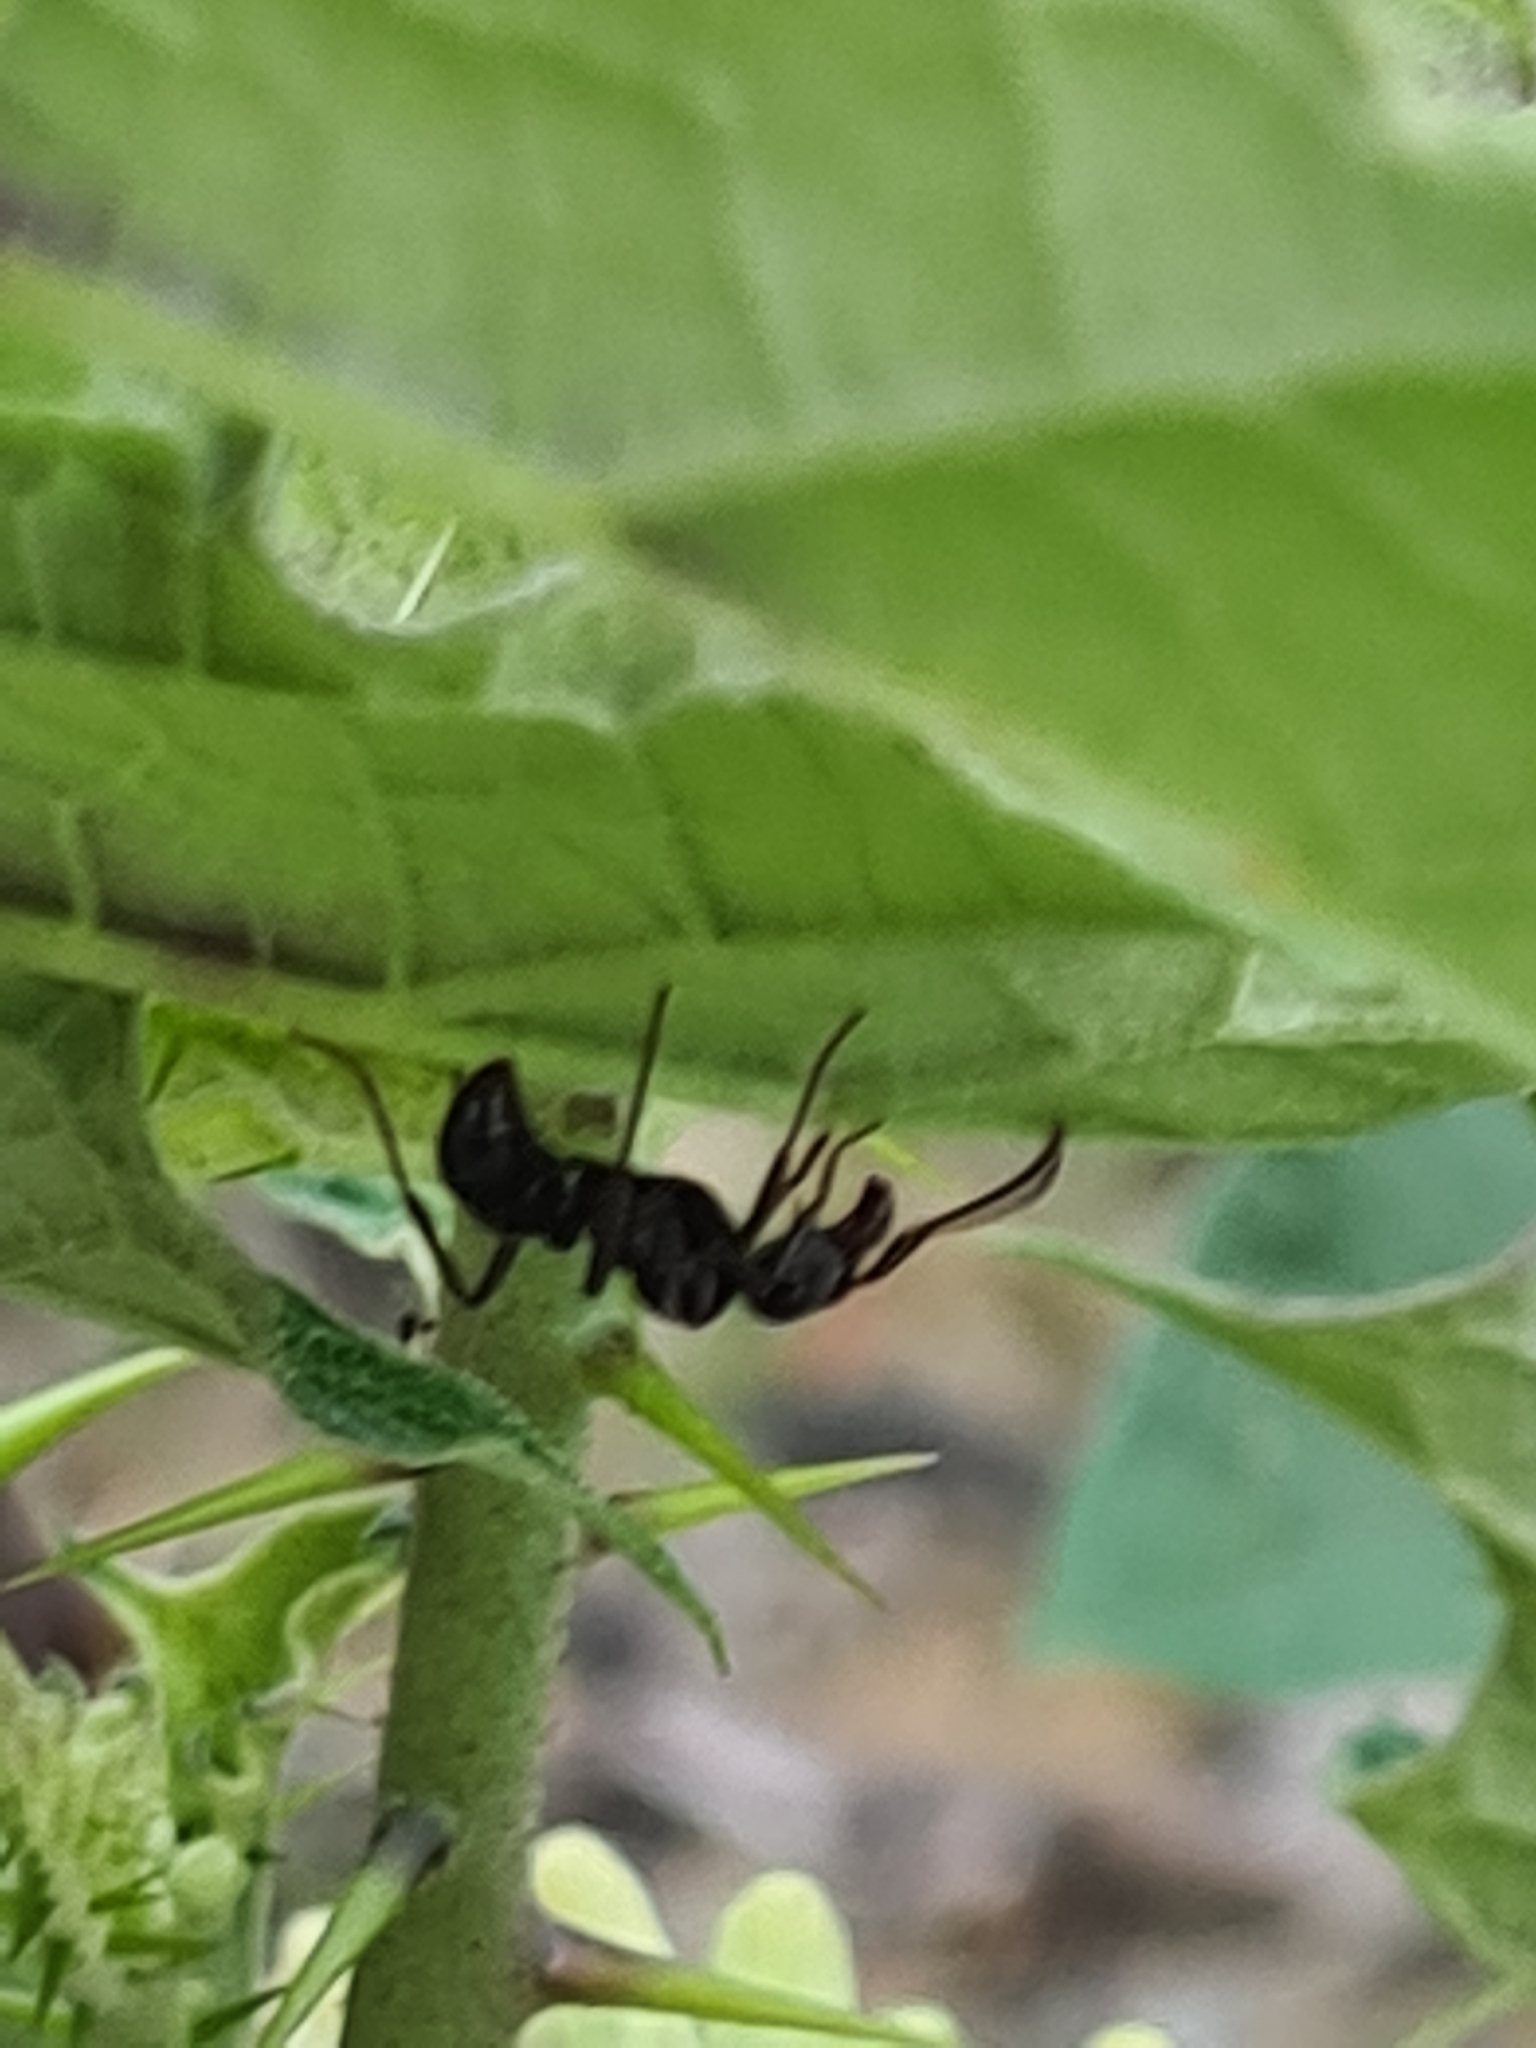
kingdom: Animalia
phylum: Arthropoda
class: Insecta
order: Hymenoptera
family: Formicidae
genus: Ectatomma
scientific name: Ectatomma brunneum
